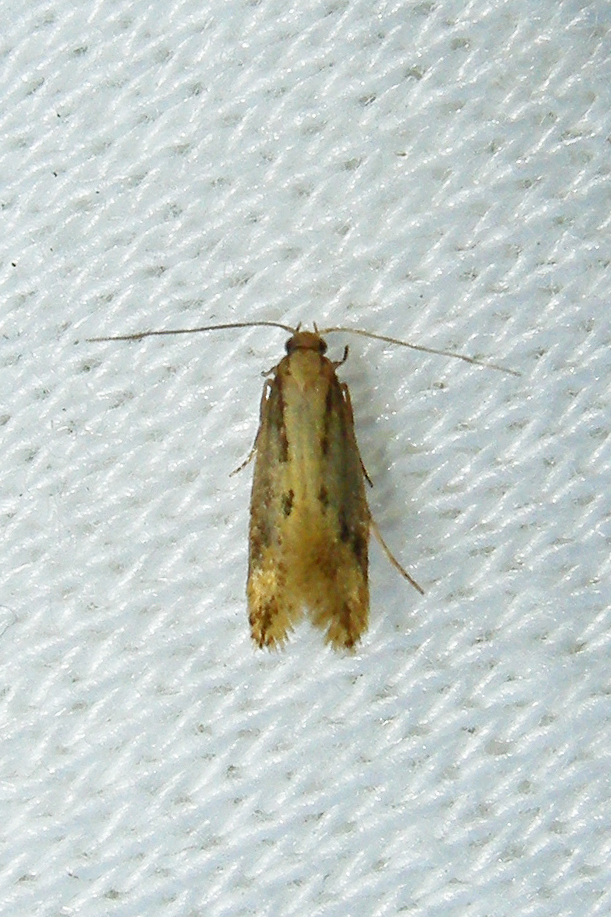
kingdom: Animalia
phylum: Arthropoda
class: Insecta
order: Lepidoptera
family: Tineidae
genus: Tinea
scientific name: Tinea mandarinella
